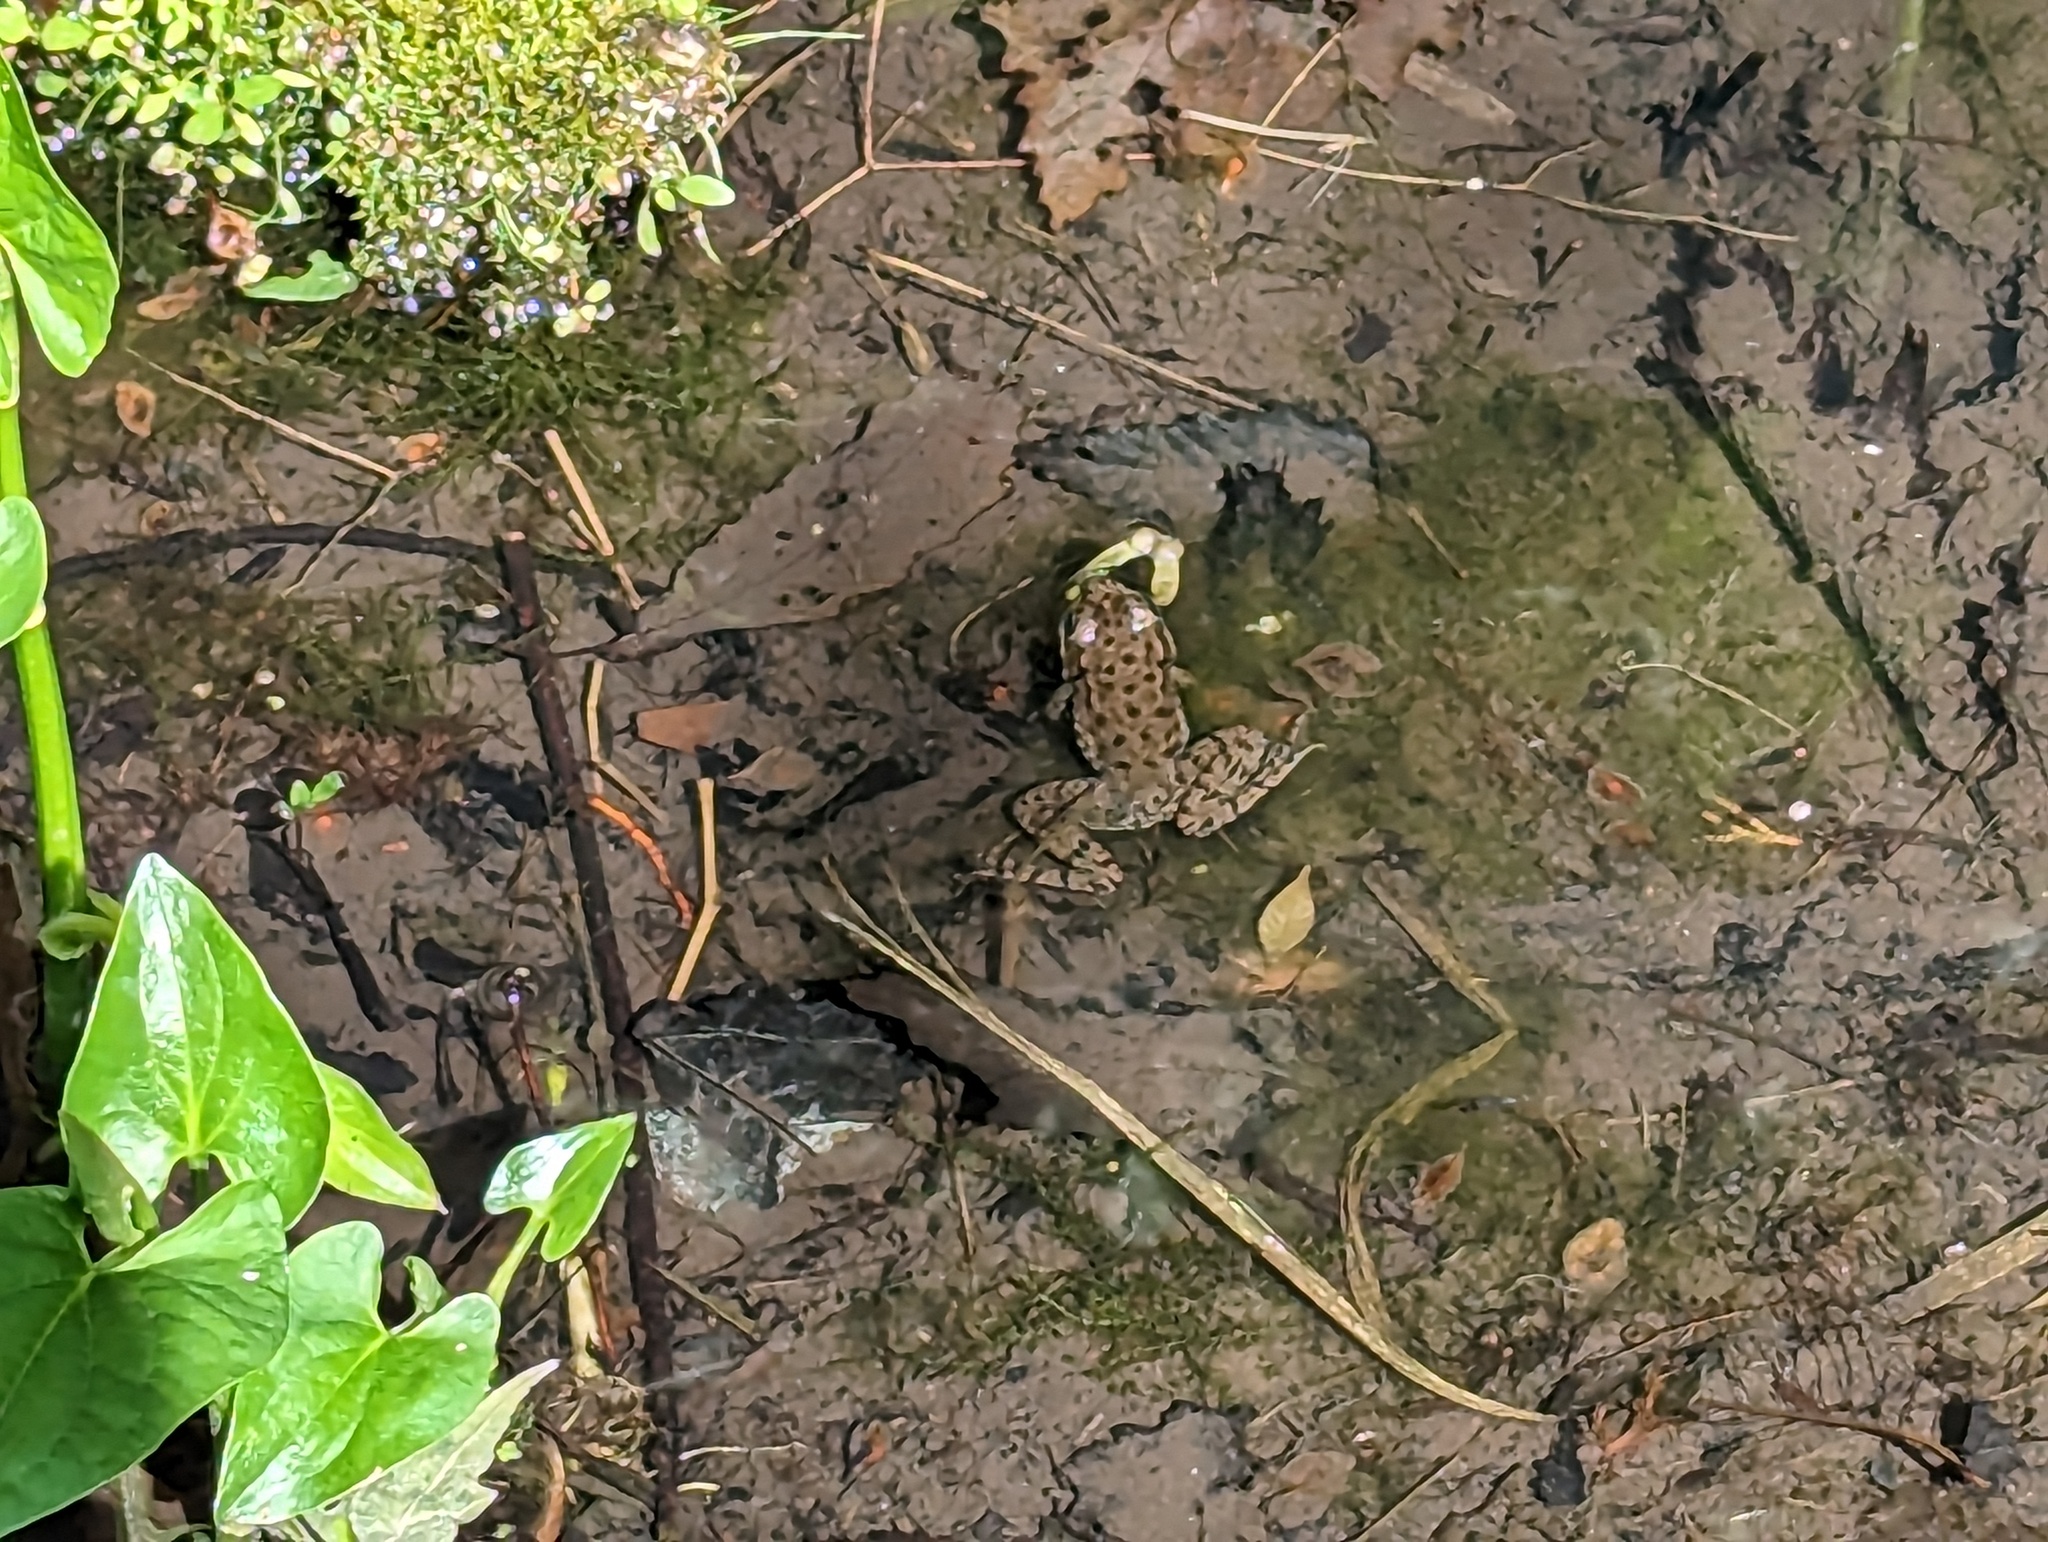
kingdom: Animalia
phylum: Chordata
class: Amphibia
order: Anura
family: Ranidae
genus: Lithobates
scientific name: Lithobates clamitans
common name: Green frog
